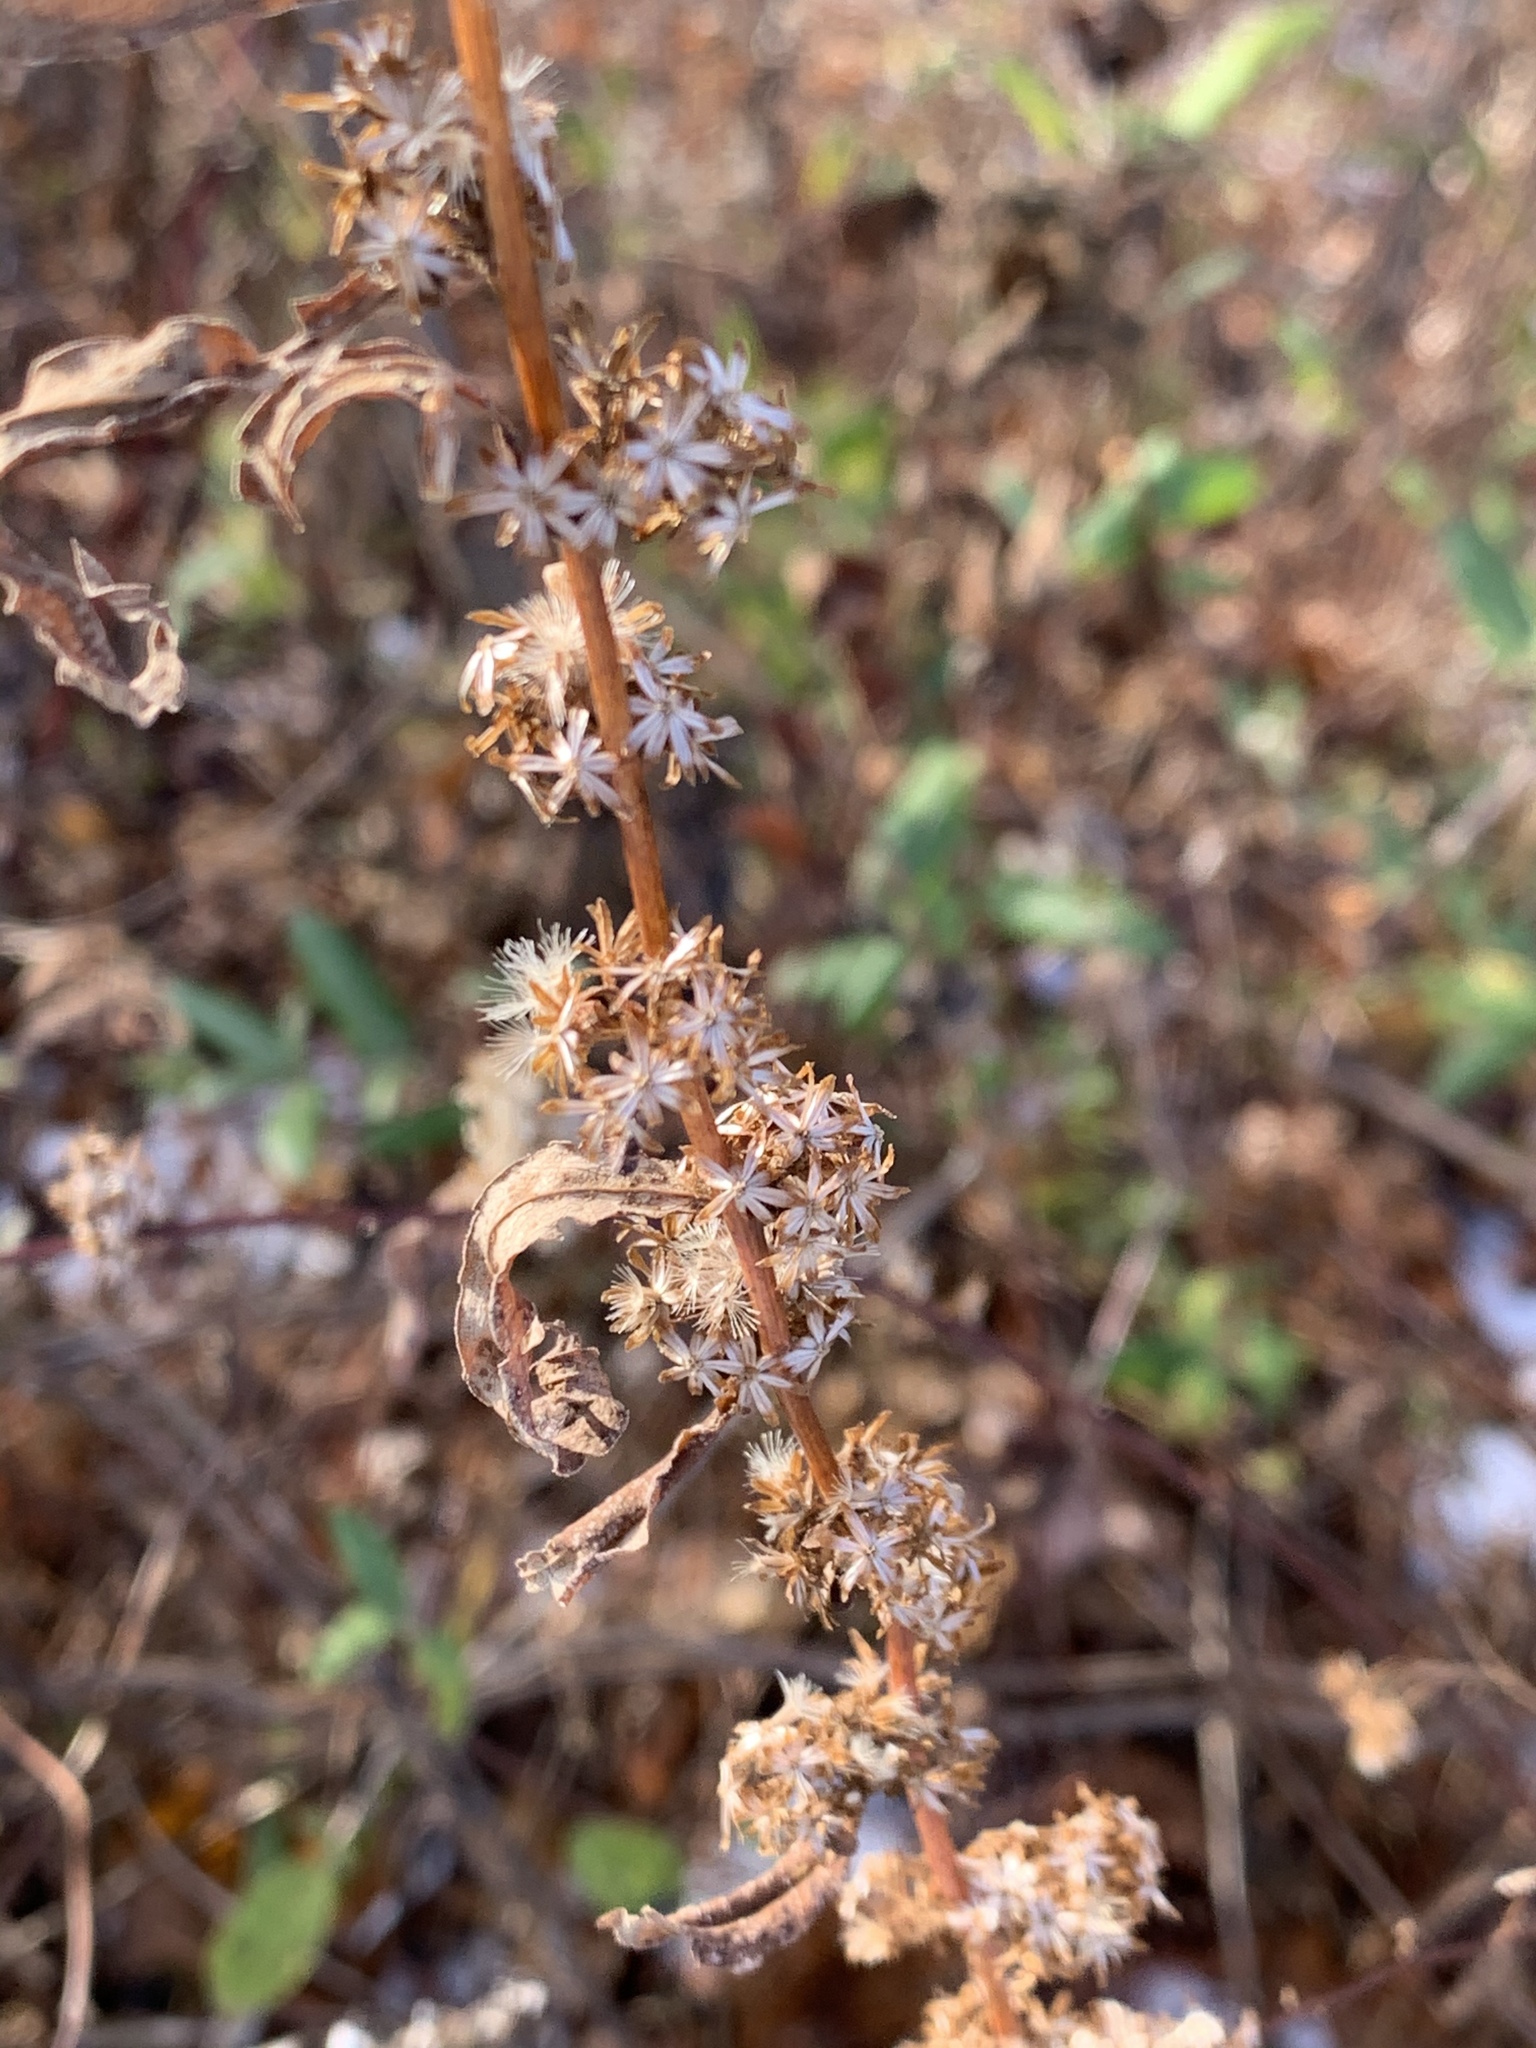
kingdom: Plantae
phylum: Tracheophyta
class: Magnoliopsida
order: Asterales
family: Asteraceae
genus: Solidago
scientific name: Solidago caesia
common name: Woodland goldenrod
